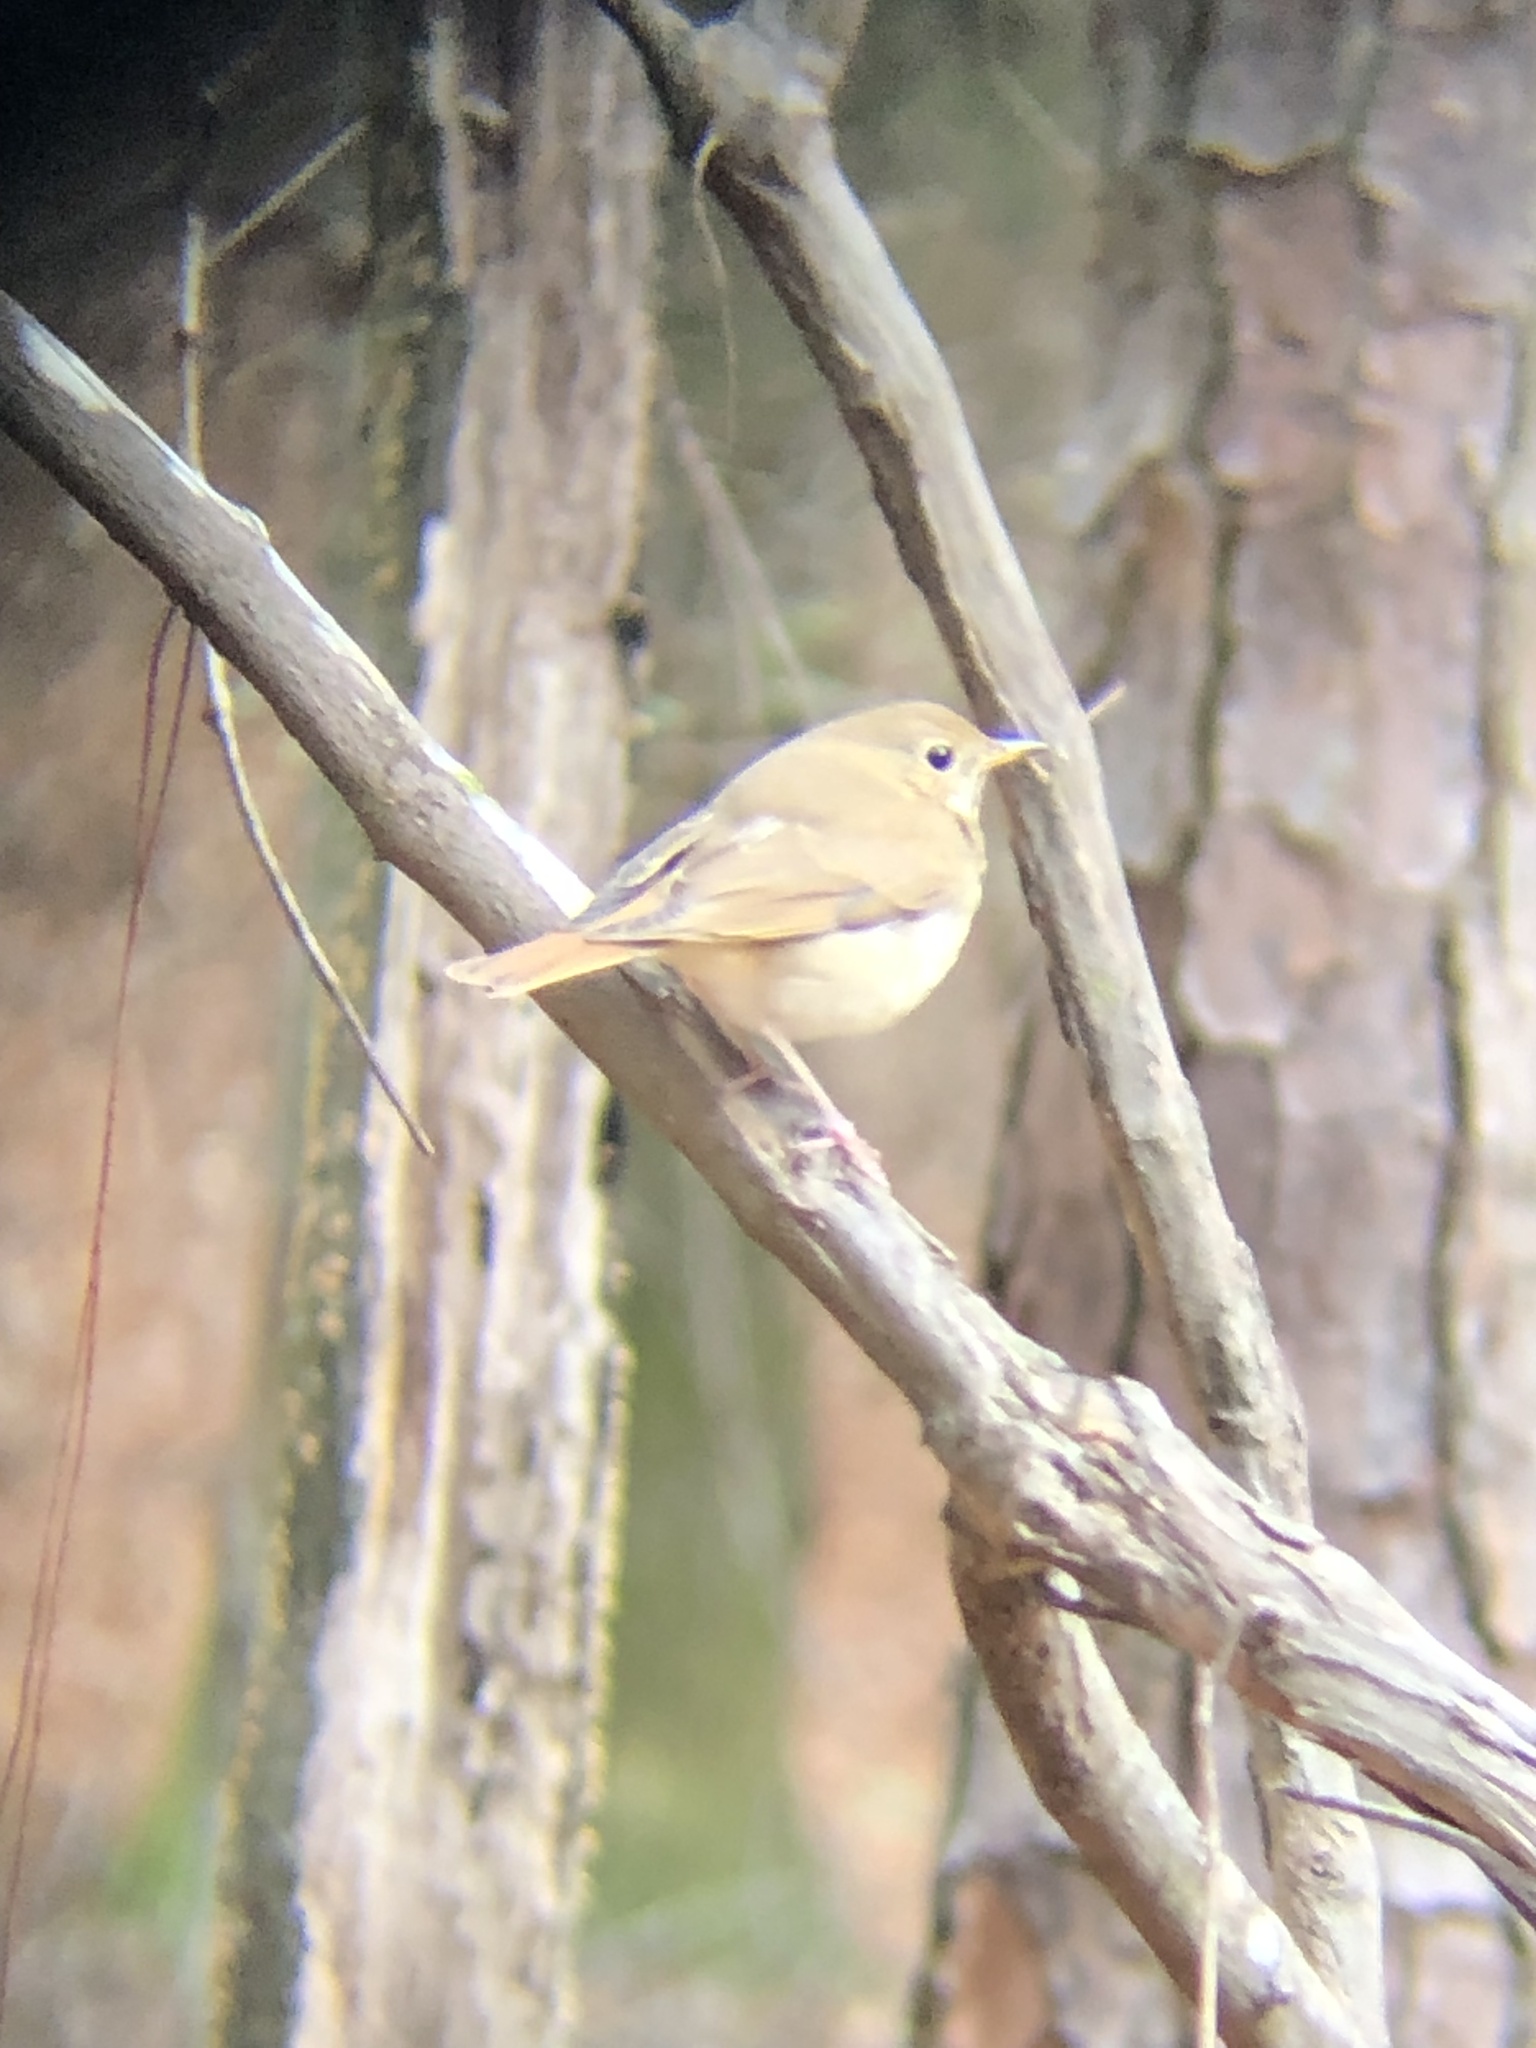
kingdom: Animalia
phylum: Chordata
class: Aves
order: Passeriformes
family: Turdidae
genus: Catharus
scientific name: Catharus guttatus
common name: Hermit thrush
